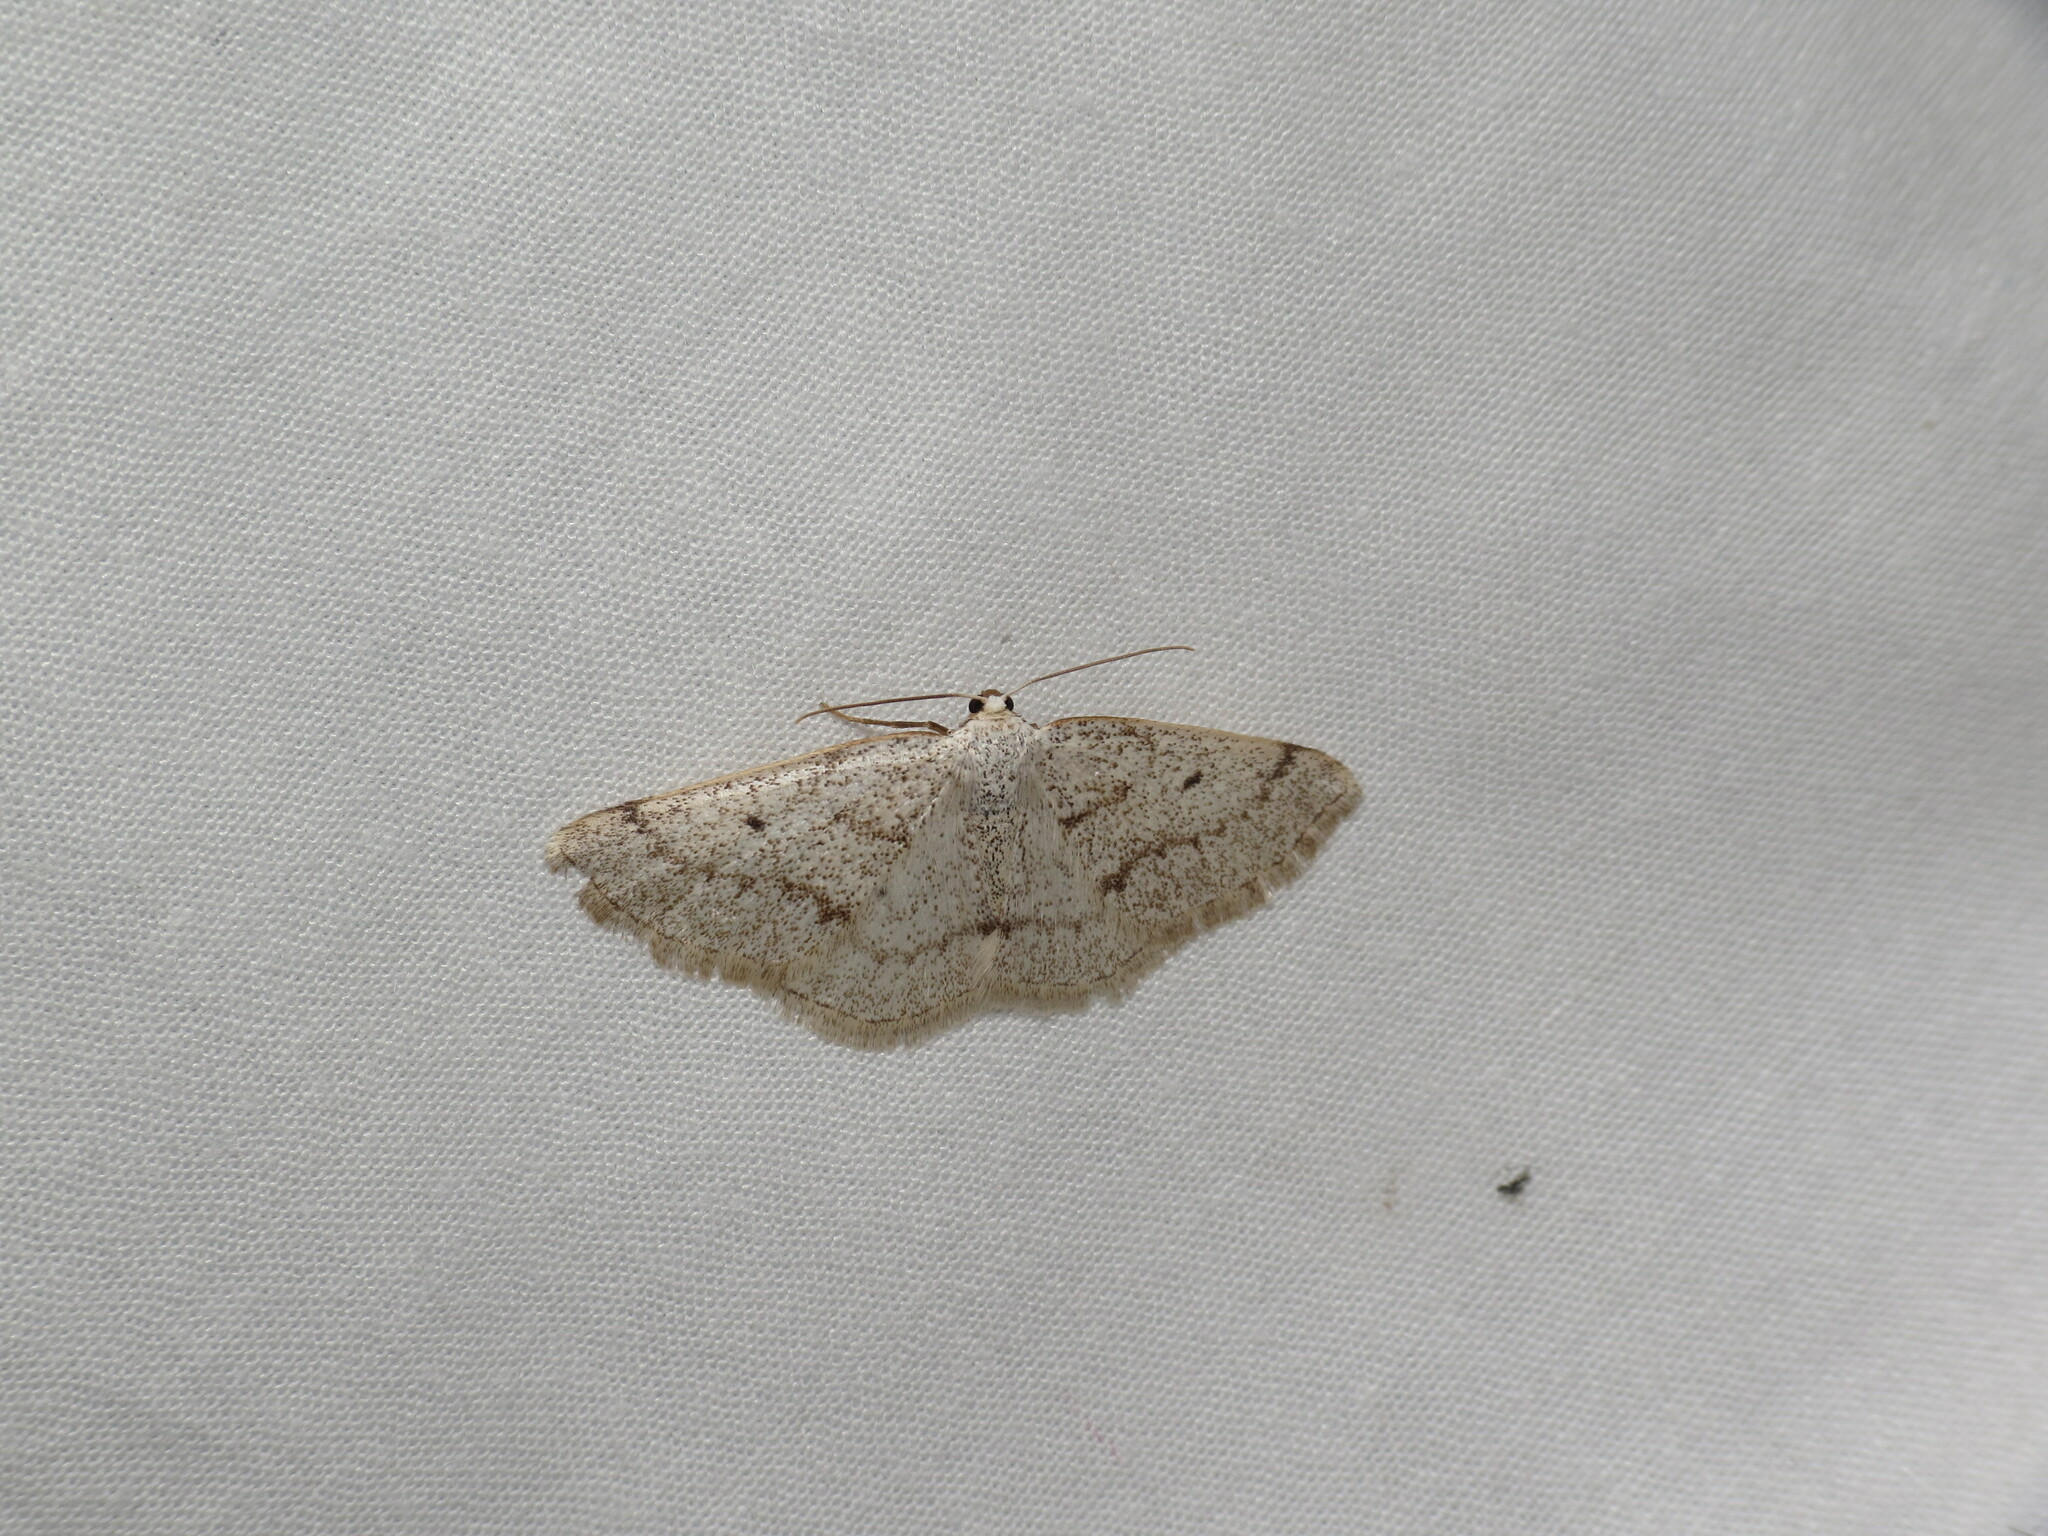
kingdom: Animalia
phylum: Arthropoda
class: Insecta
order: Lepidoptera
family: Geometridae
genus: Lomographa
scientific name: Lomographa glomeraria
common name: Gray spring moth
